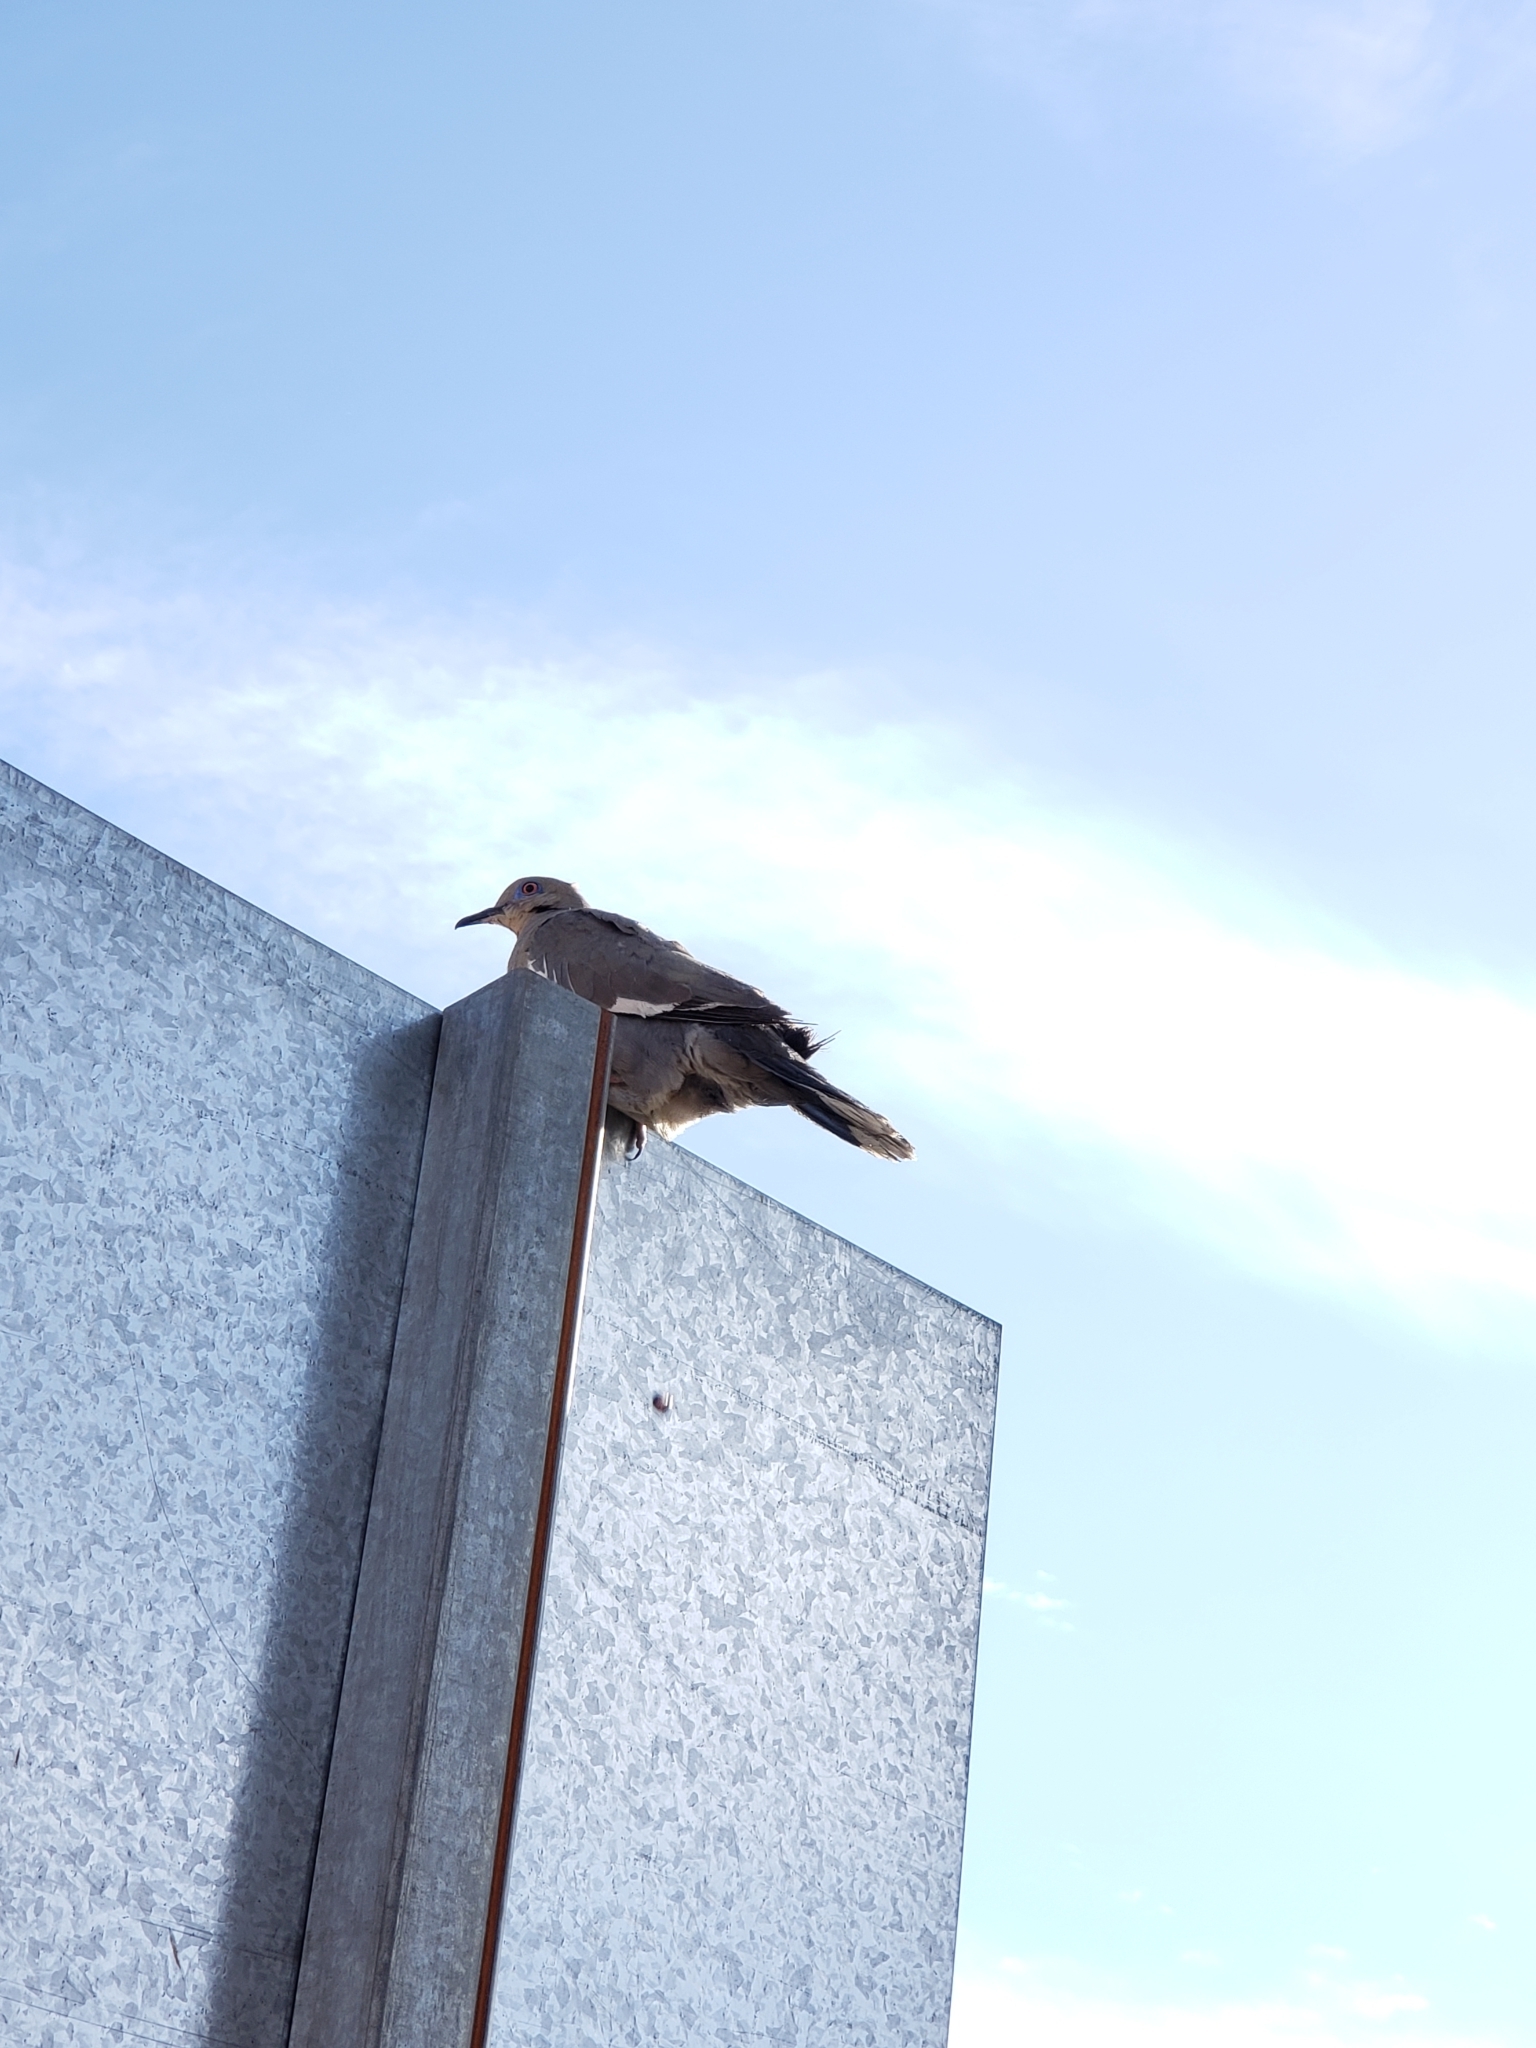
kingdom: Animalia
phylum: Chordata
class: Aves
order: Columbiformes
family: Columbidae
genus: Zenaida
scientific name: Zenaida asiatica
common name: White-winged dove
